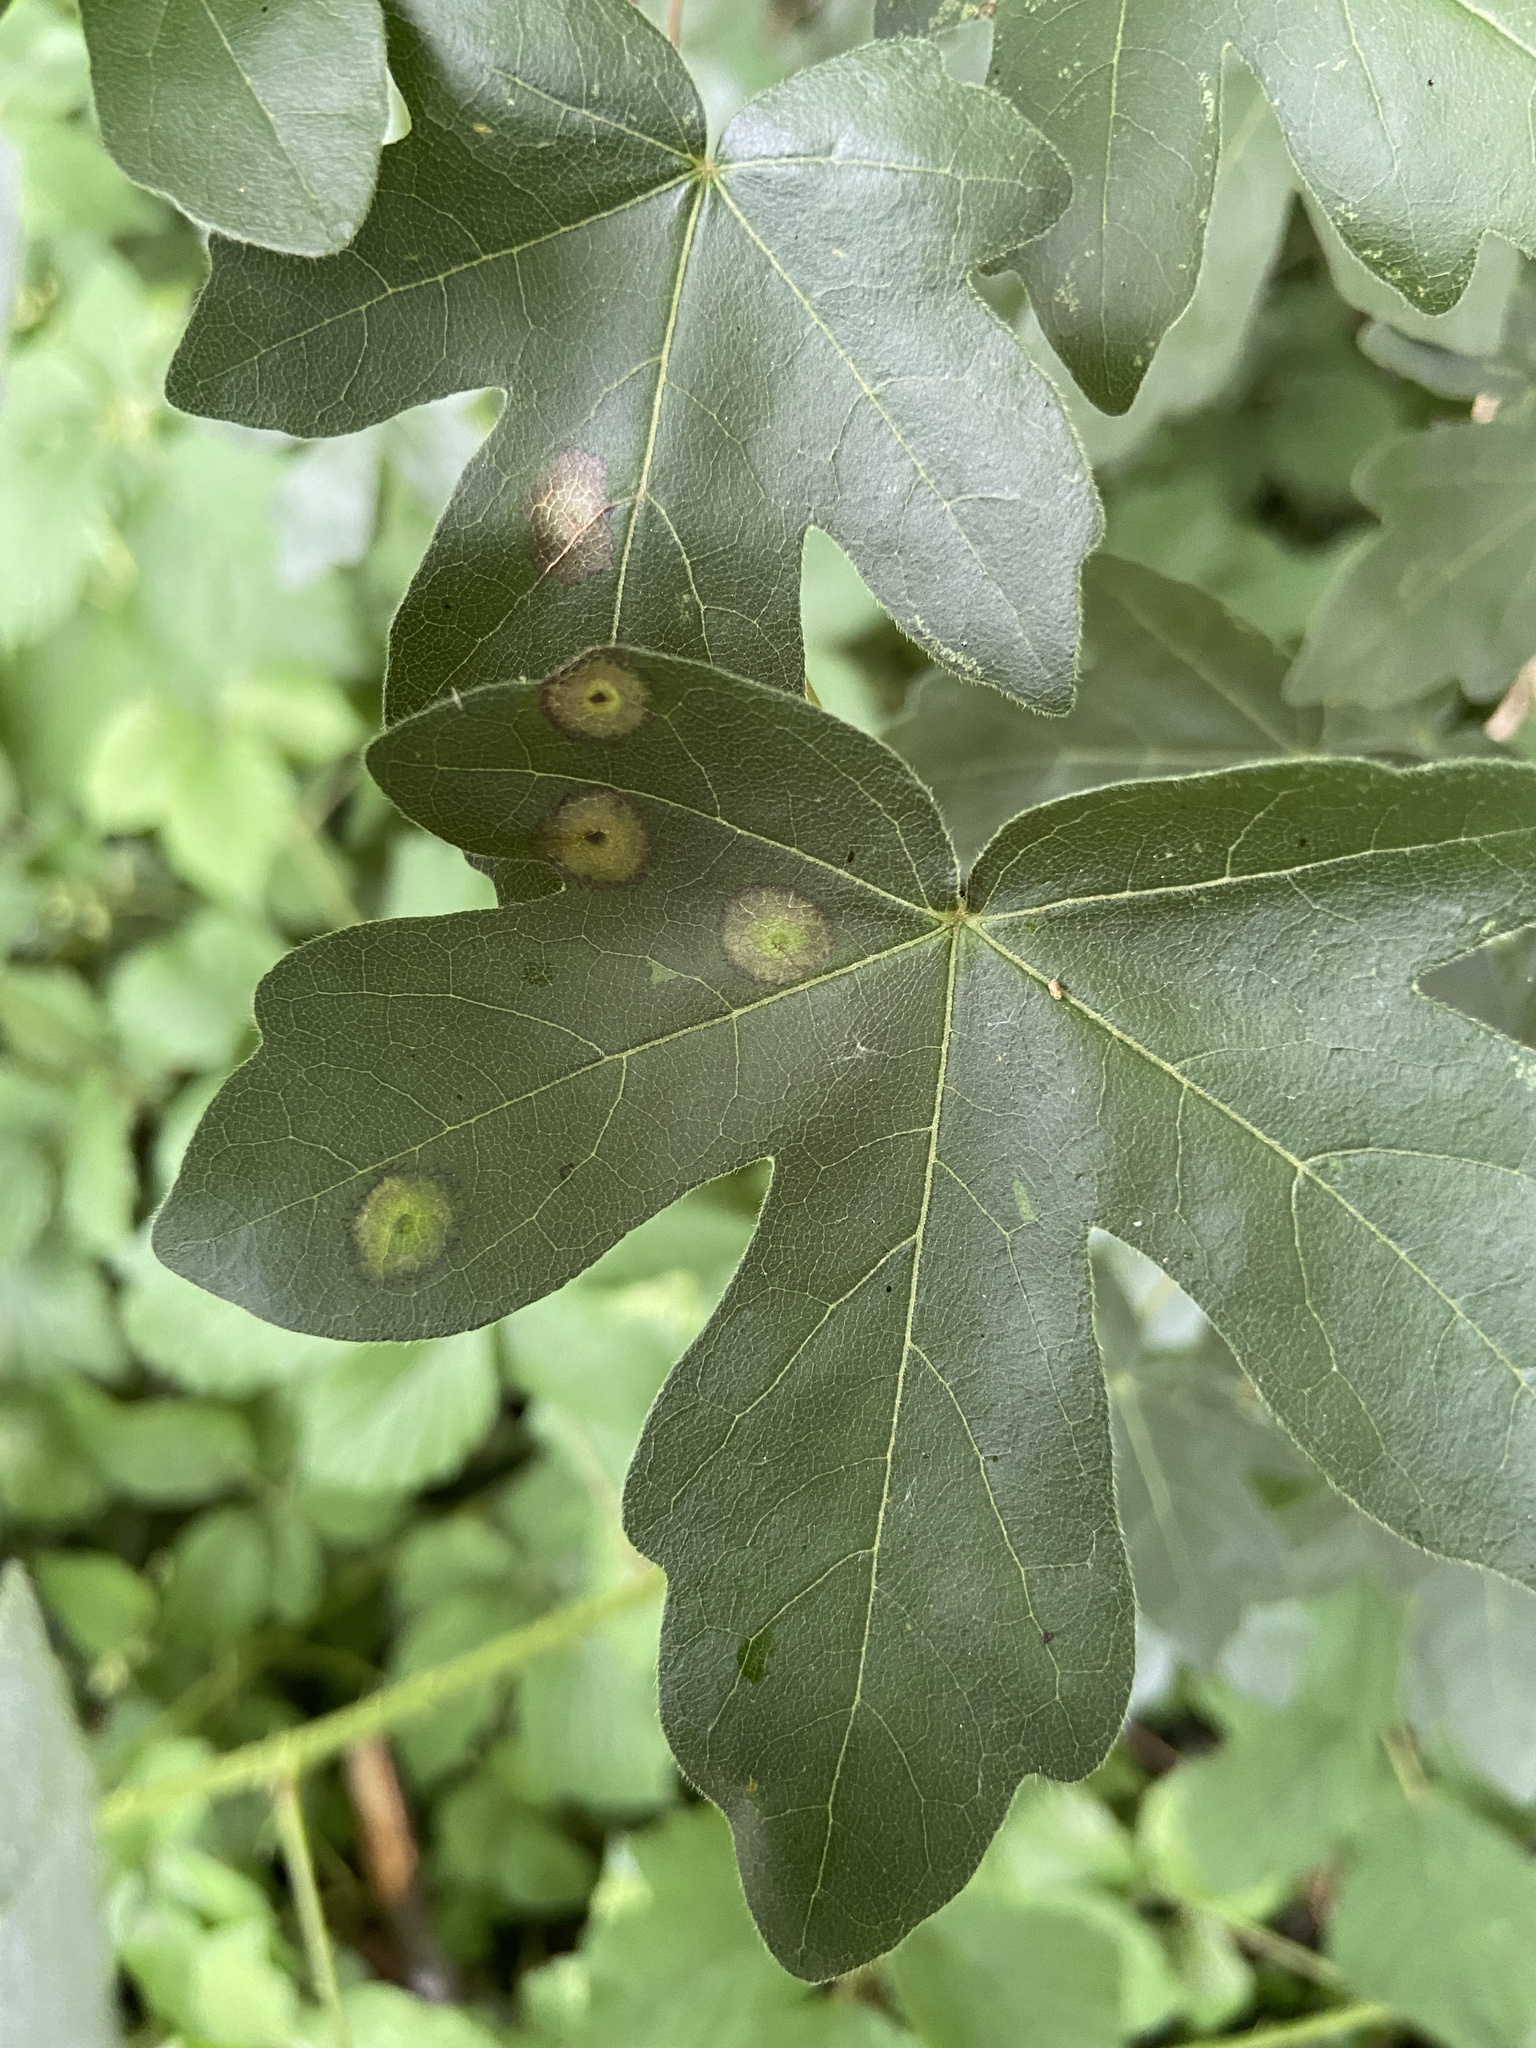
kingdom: Animalia
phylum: Arthropoda
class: Insecta
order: Diptera
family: Cecidomyiidae
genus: Acericecis
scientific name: Acericecis campestre
